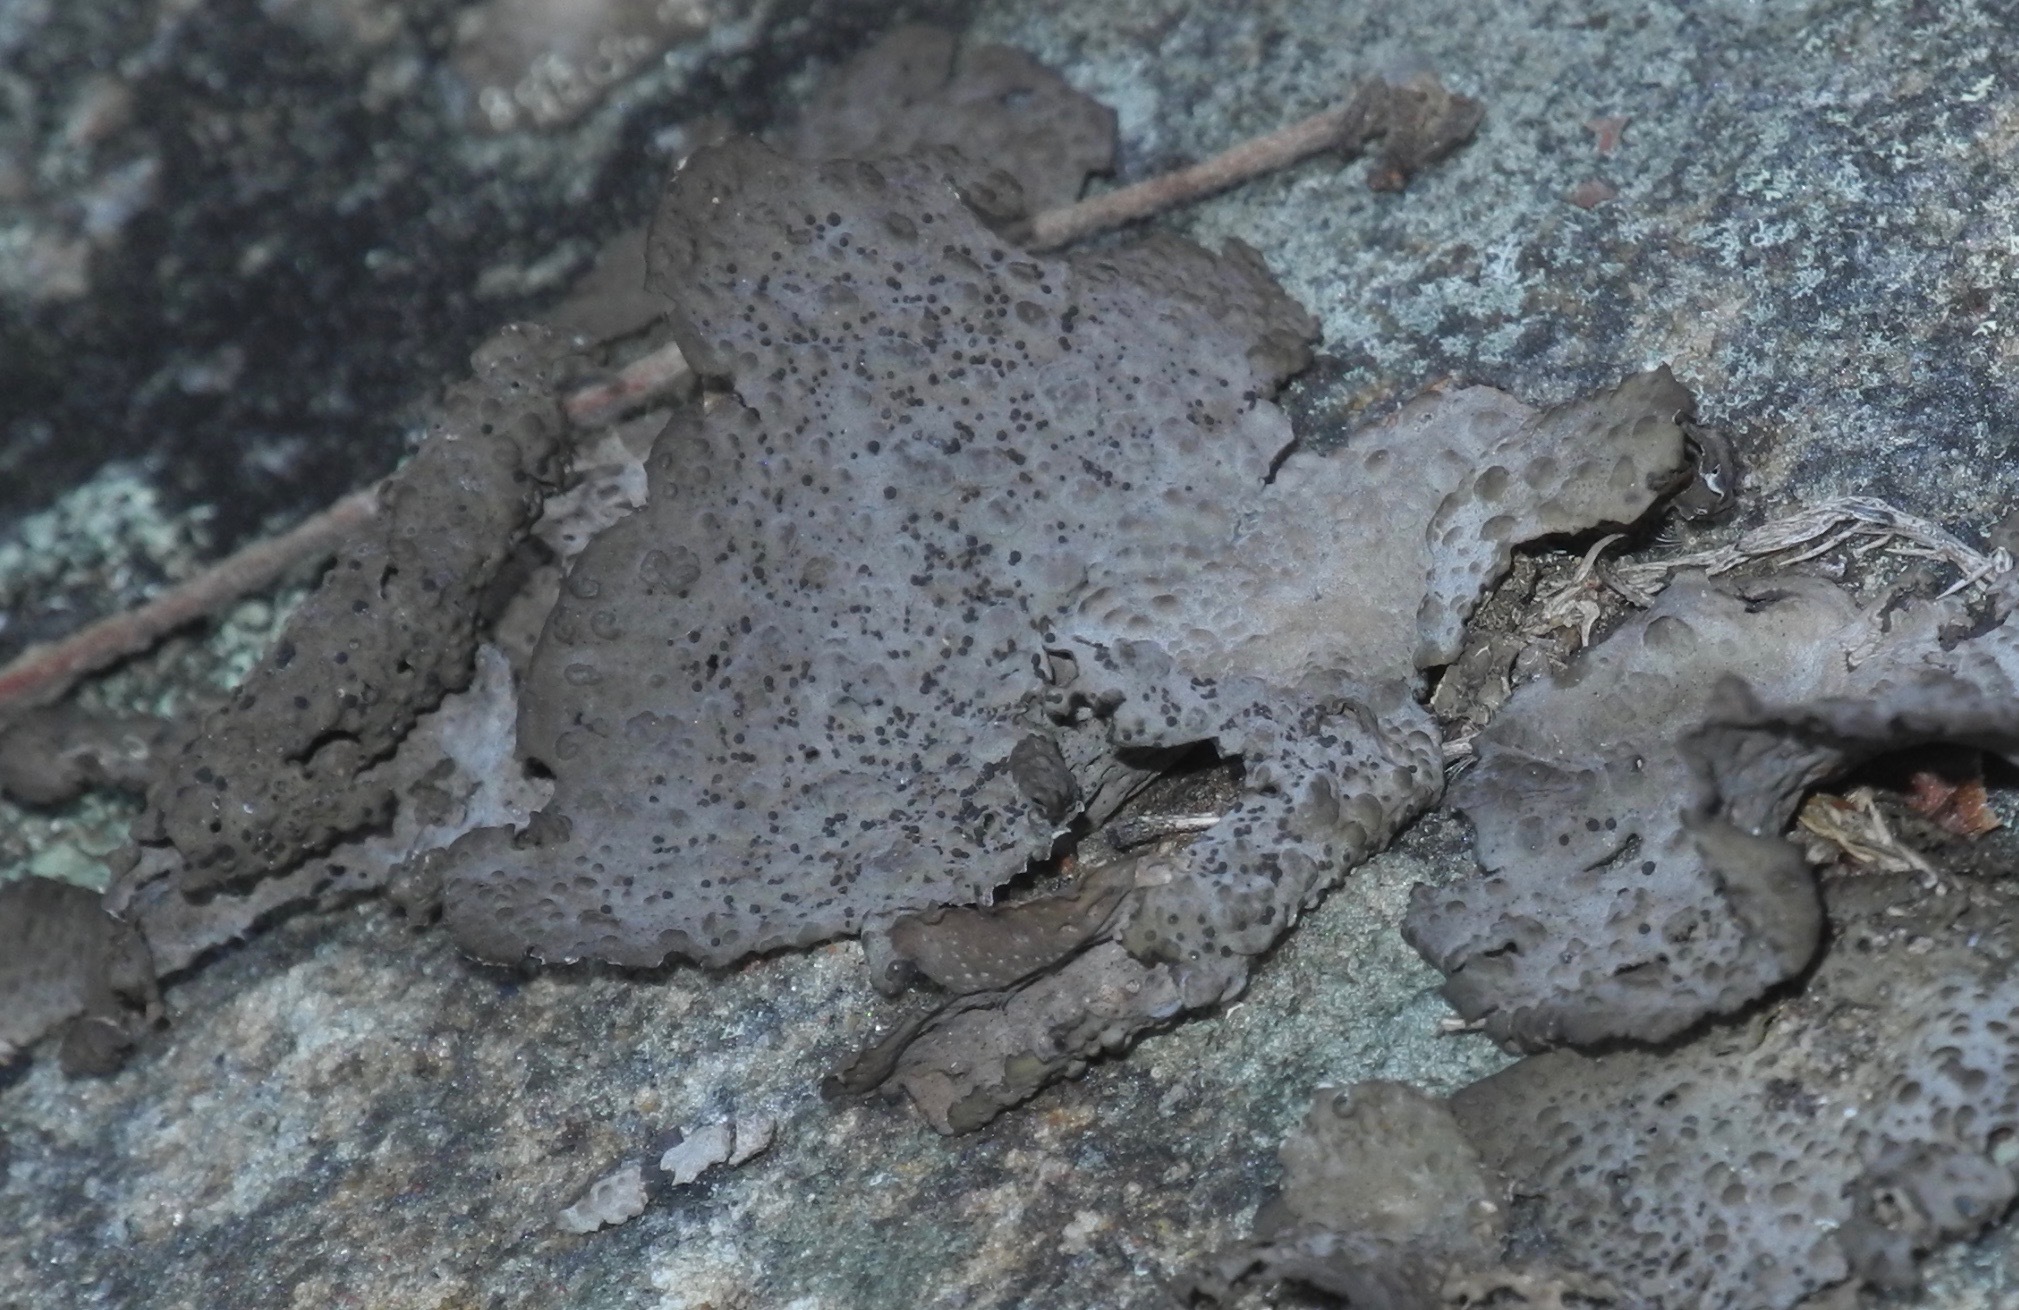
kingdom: Fungi
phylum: Ascomycota
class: Lecanoromycetes
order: Umbilicariales
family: Umbilicariaceae
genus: Lasallia
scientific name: Lasallia papulosa
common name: Common toadskin lichen
